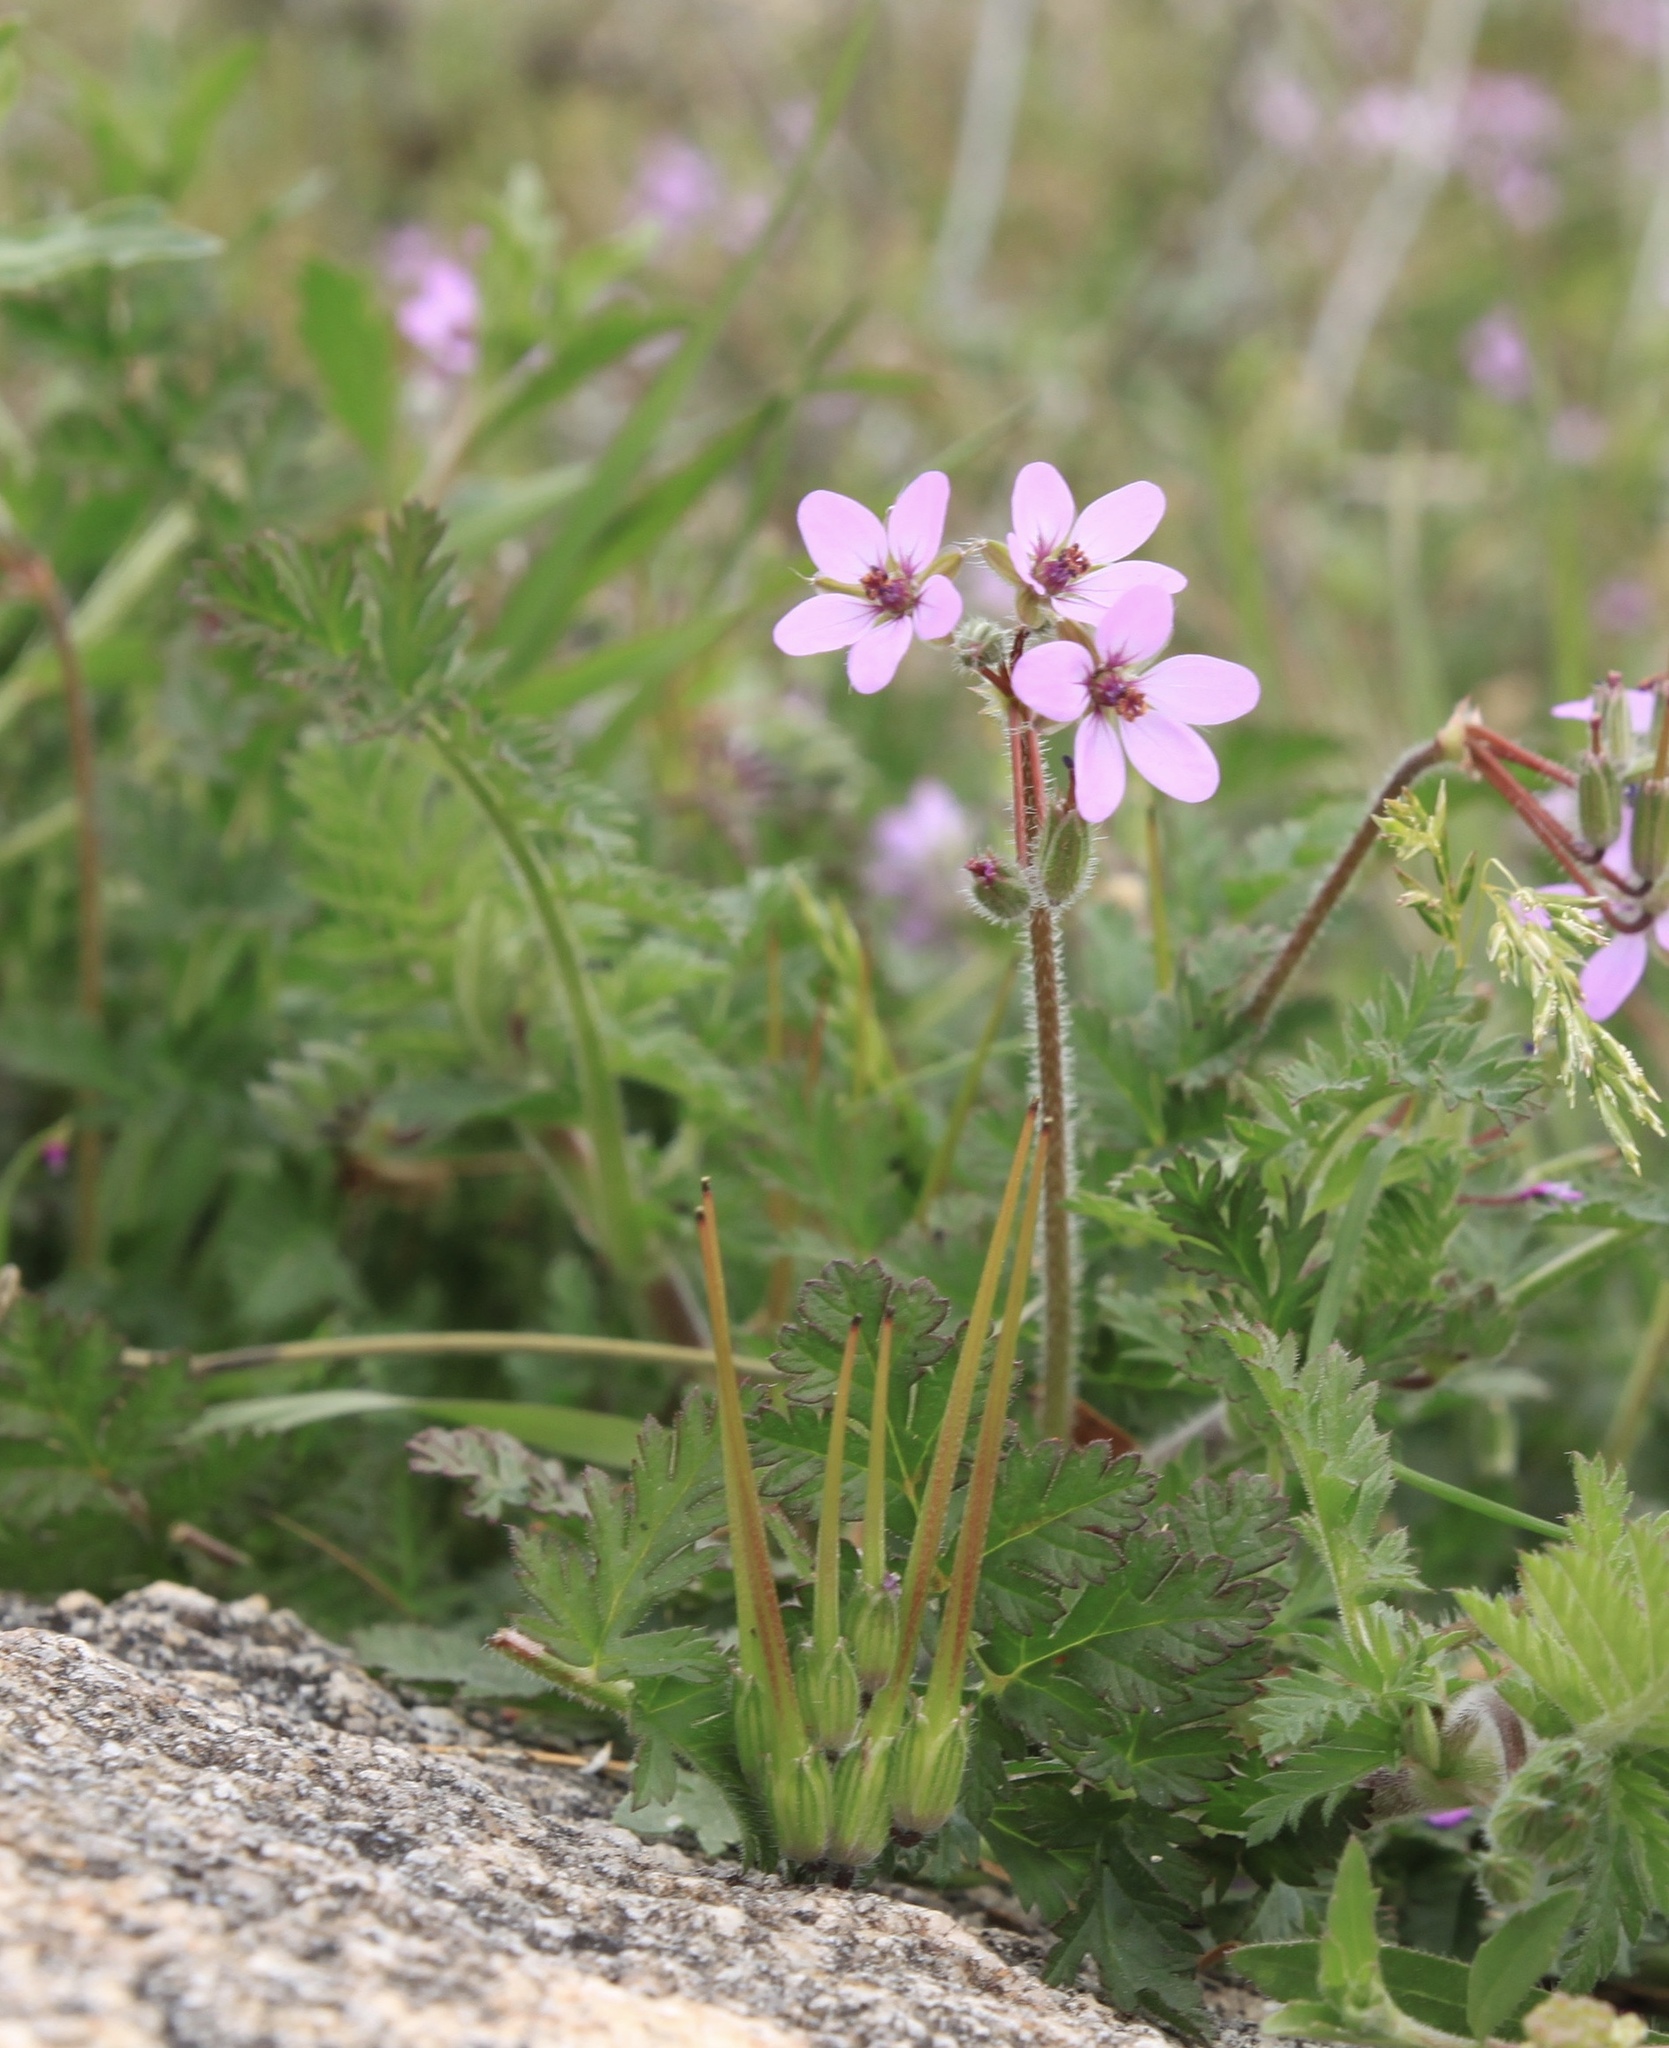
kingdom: Plantae
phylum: Tracheophyta
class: Magnoliopsida
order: Geraniales
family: Geraniaceae
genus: Erodium
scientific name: Erodium cicutarium
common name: Common stork's-bill
